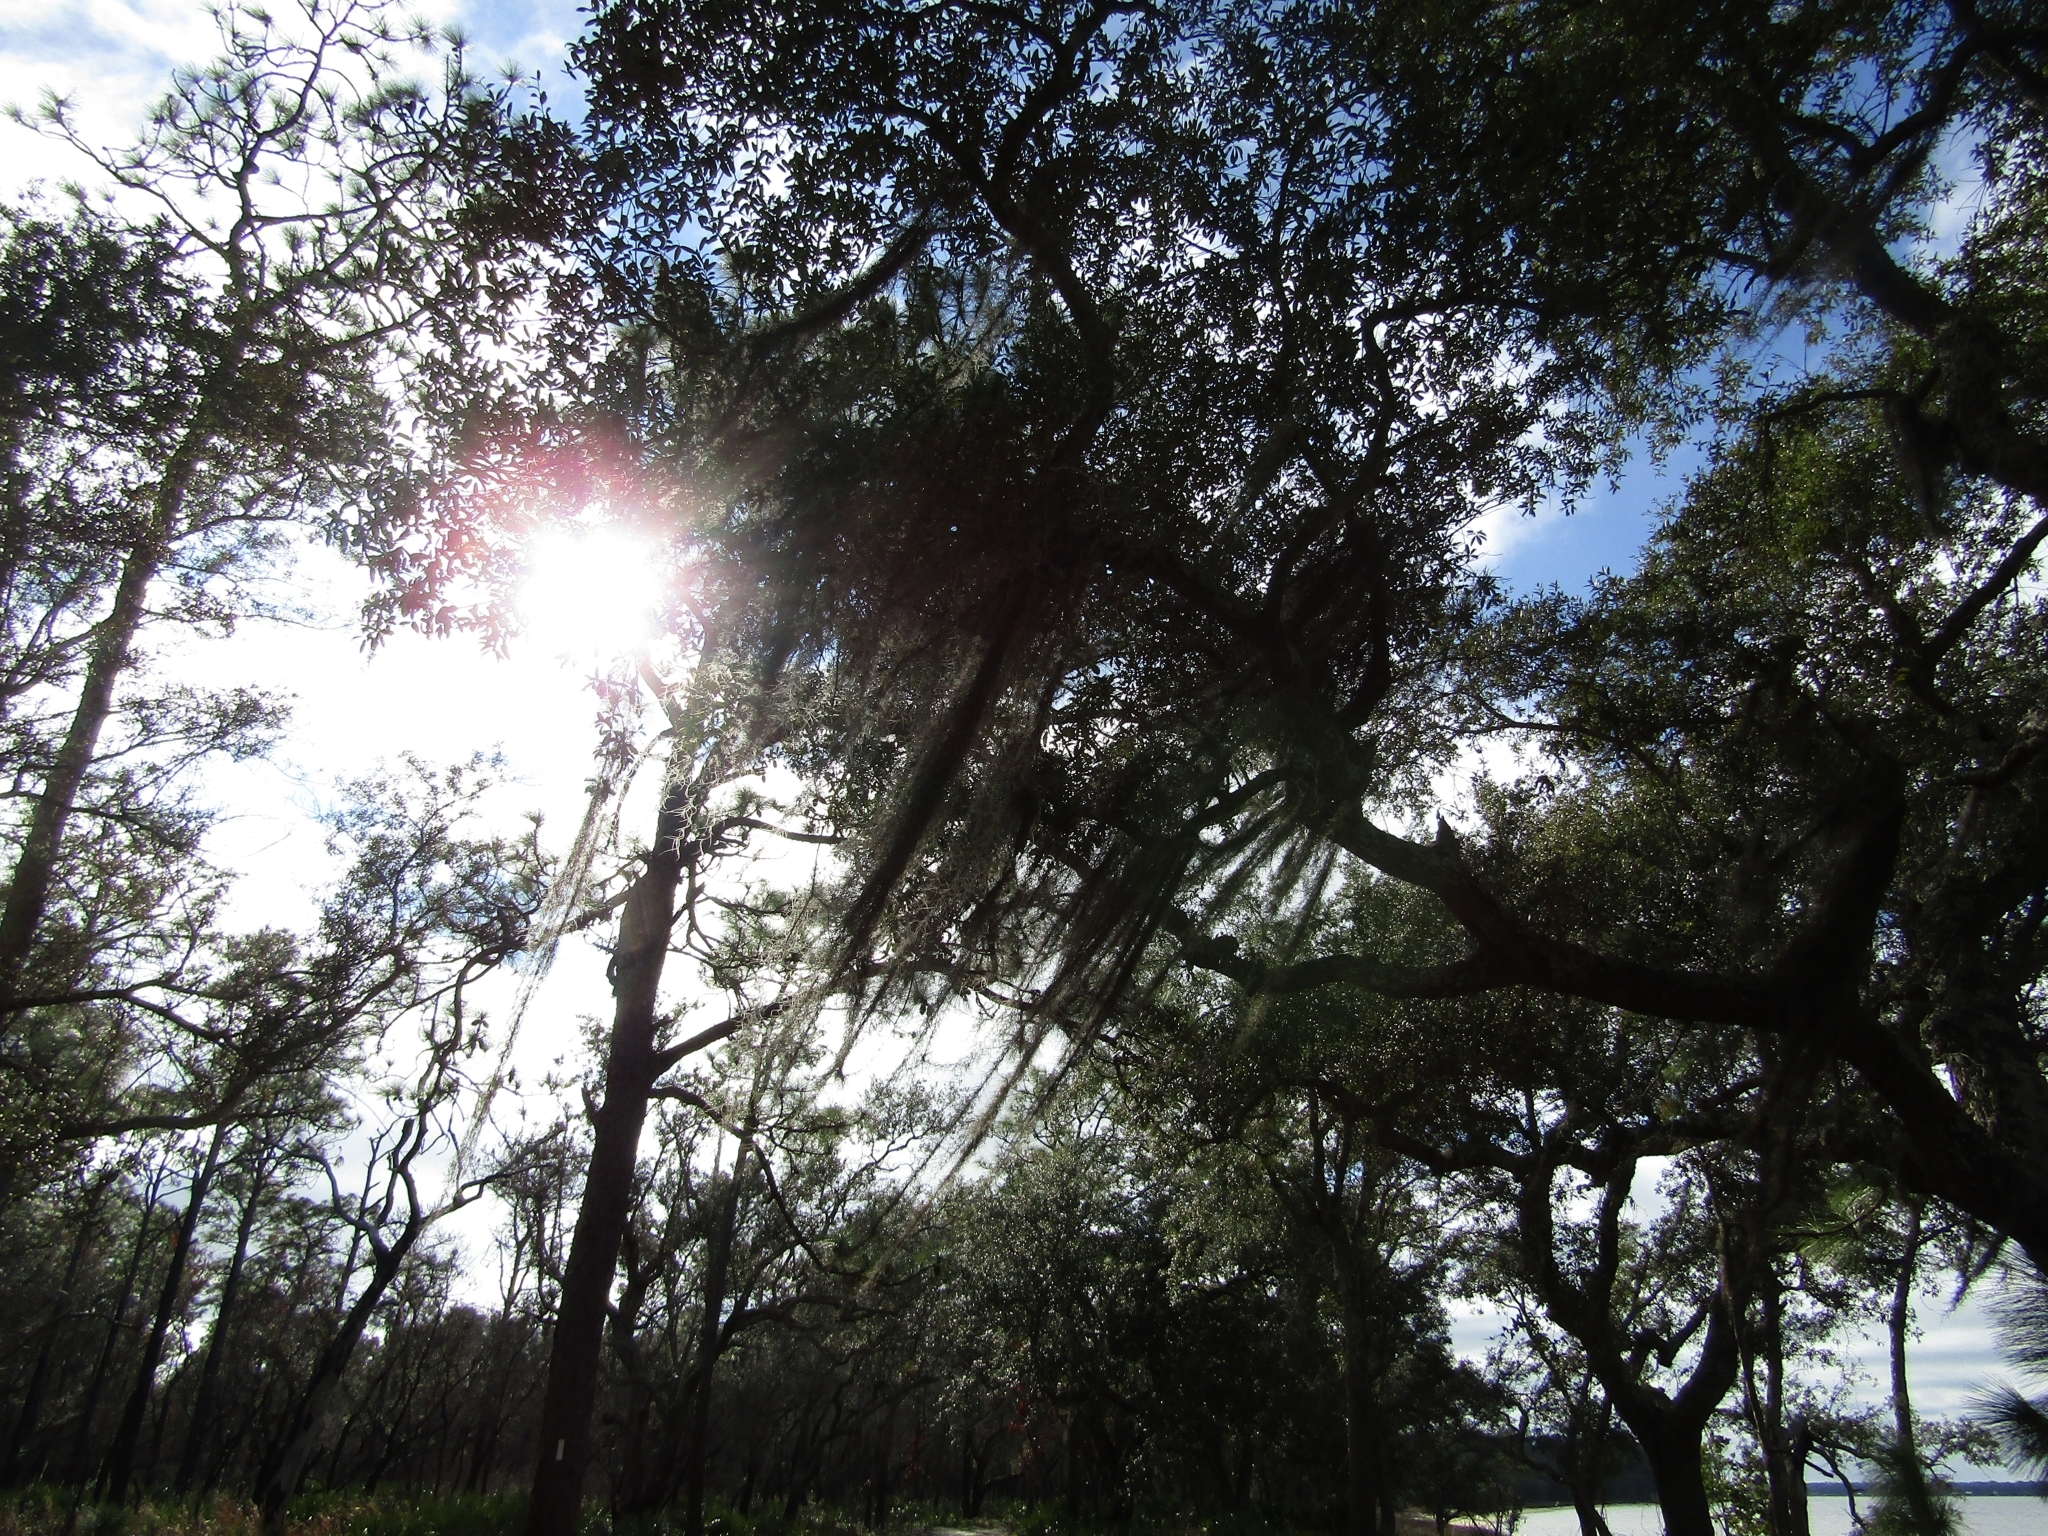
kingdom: Plantae
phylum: Tracheophyta
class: Liliopsida
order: Poales
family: Bromeliaceae
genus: Tillandsia
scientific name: Tillandsia usneoides
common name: Spanish moss
